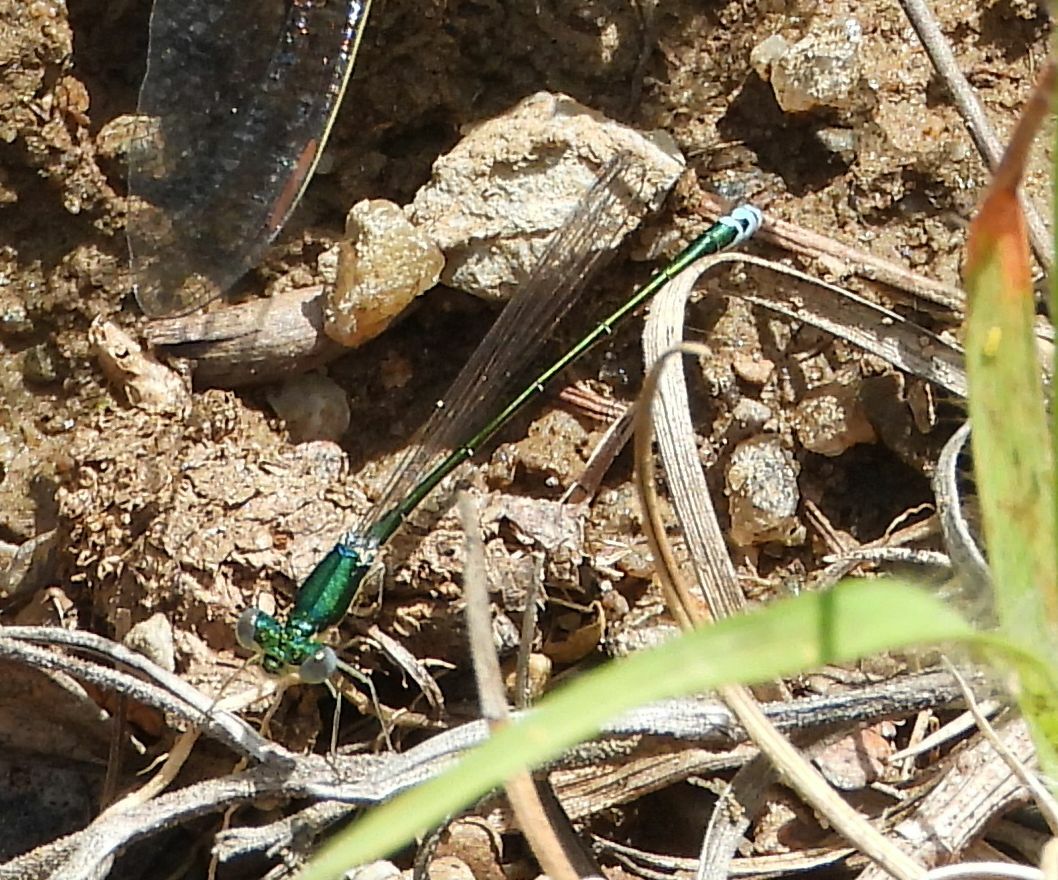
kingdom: Animalia
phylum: Arthropoda
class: Insecta
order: Odonata
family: Coenagrionidae
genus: Nehalennia
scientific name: Nehalennia irene
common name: Sedge sprite
